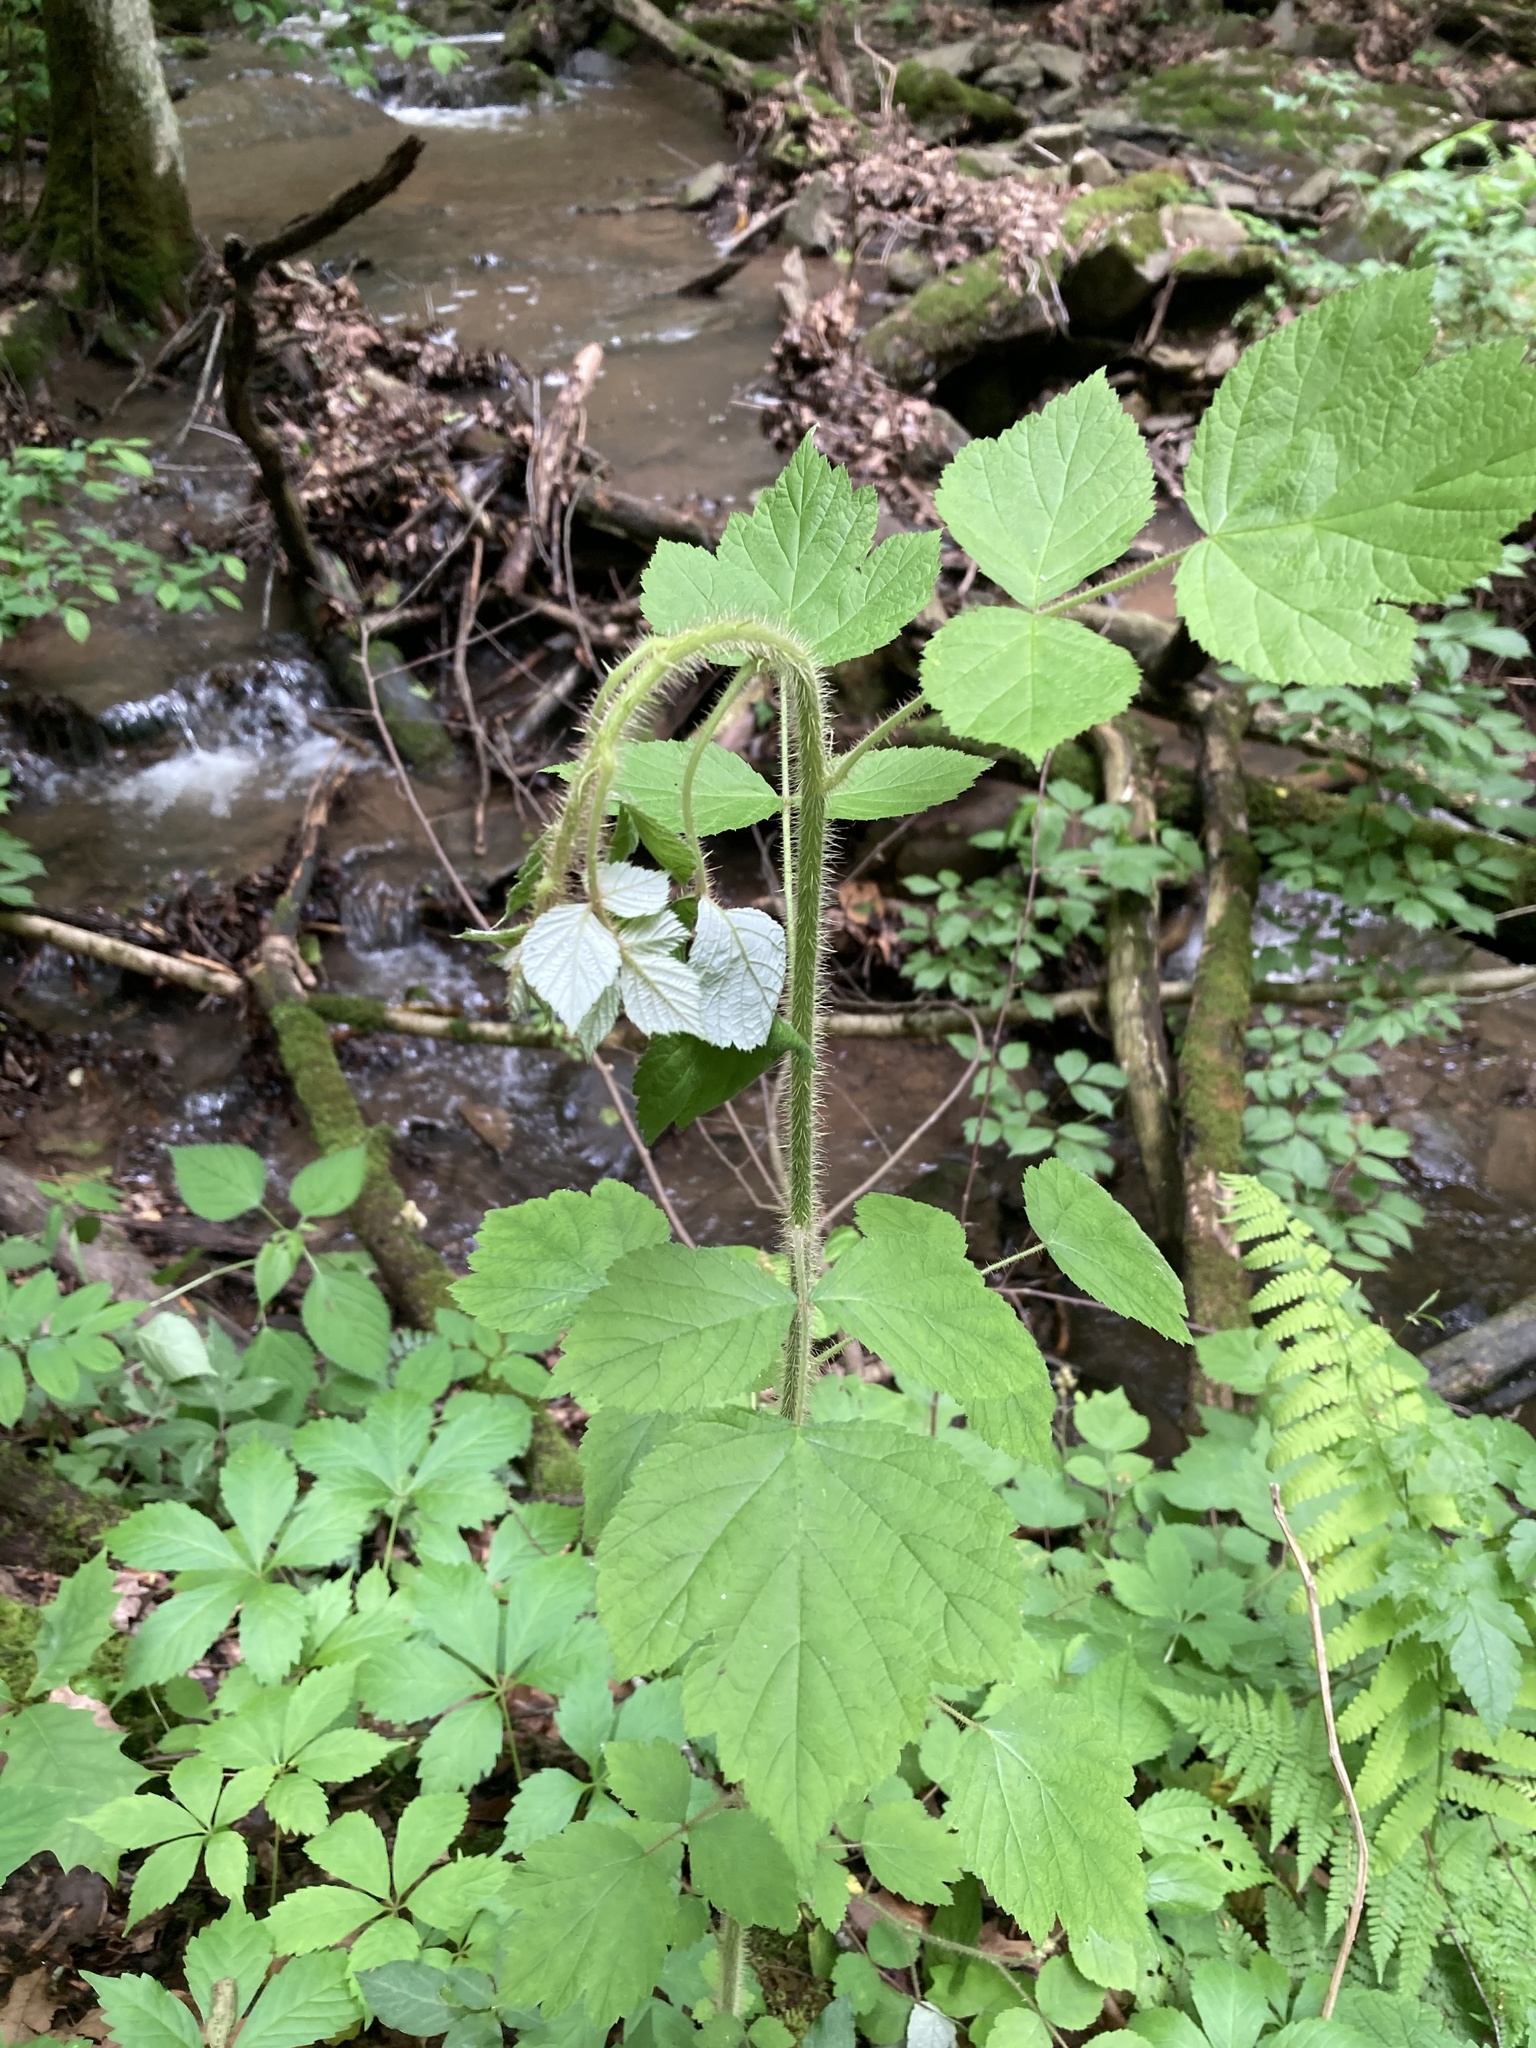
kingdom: Plantae
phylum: Tracheophyta
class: Magnoliopsida
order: Rosales
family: Rosaceae
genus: Rubus
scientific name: Rubus phoenicolasius
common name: Japanese wineberry
